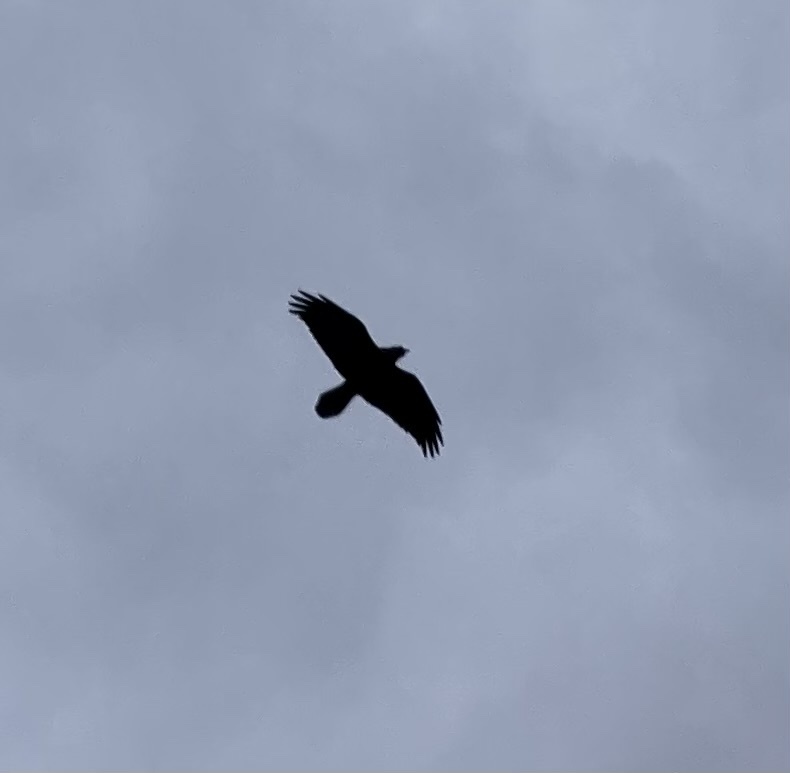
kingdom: Animalia
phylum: Chordata
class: Aves
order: Passeriformes
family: Corvidae
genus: Corvus
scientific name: Corvus corax
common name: Common raven
